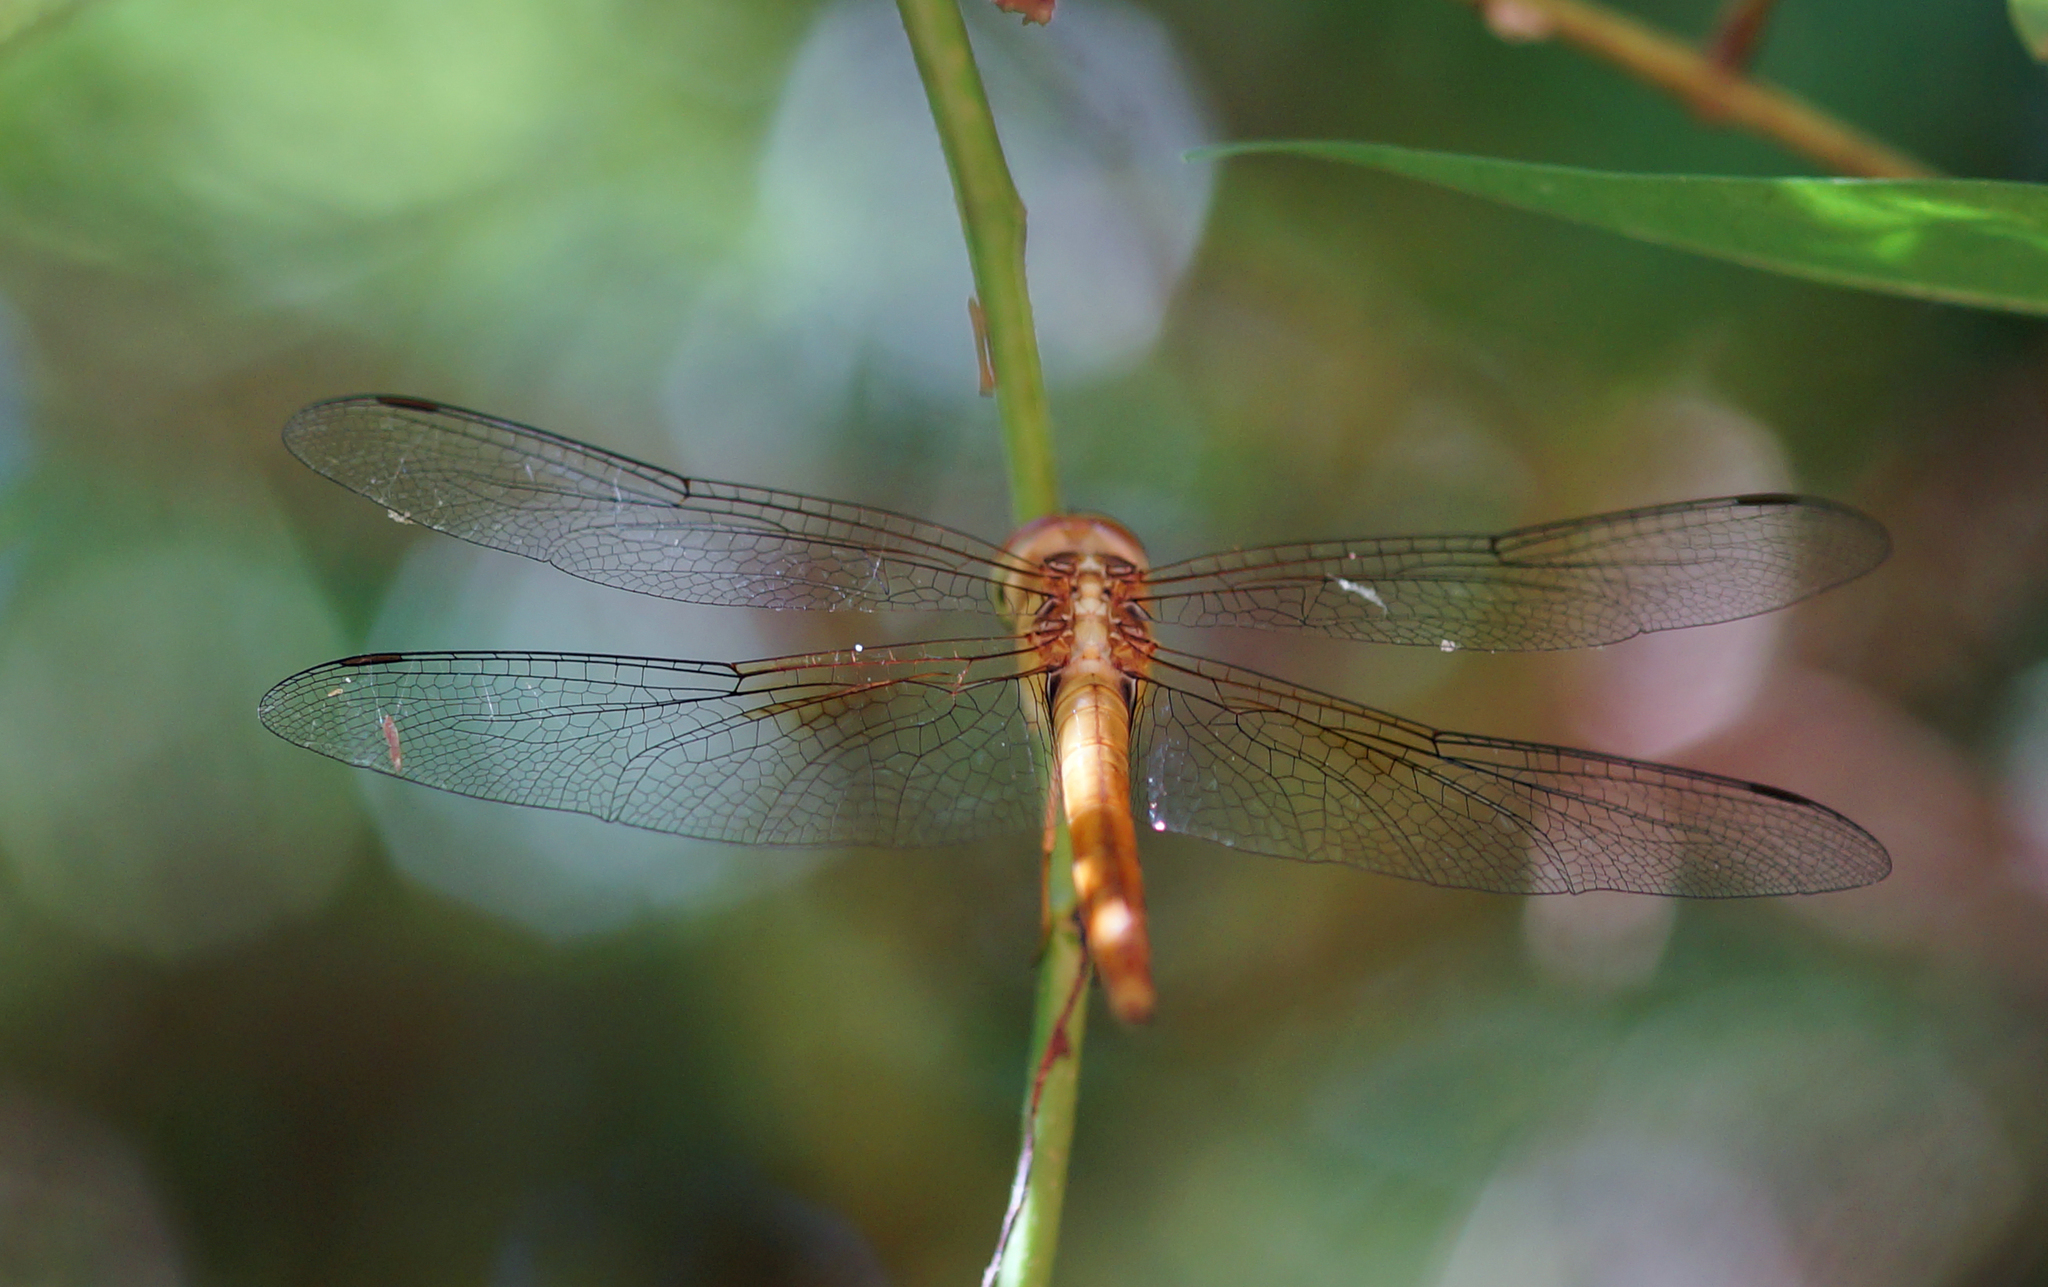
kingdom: Animalia
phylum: Arthropoda
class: Insecta
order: Odonata
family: Libellulidae
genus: Tholymis
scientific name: Tholymis tillarga
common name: Coral-tailed cloud wing
